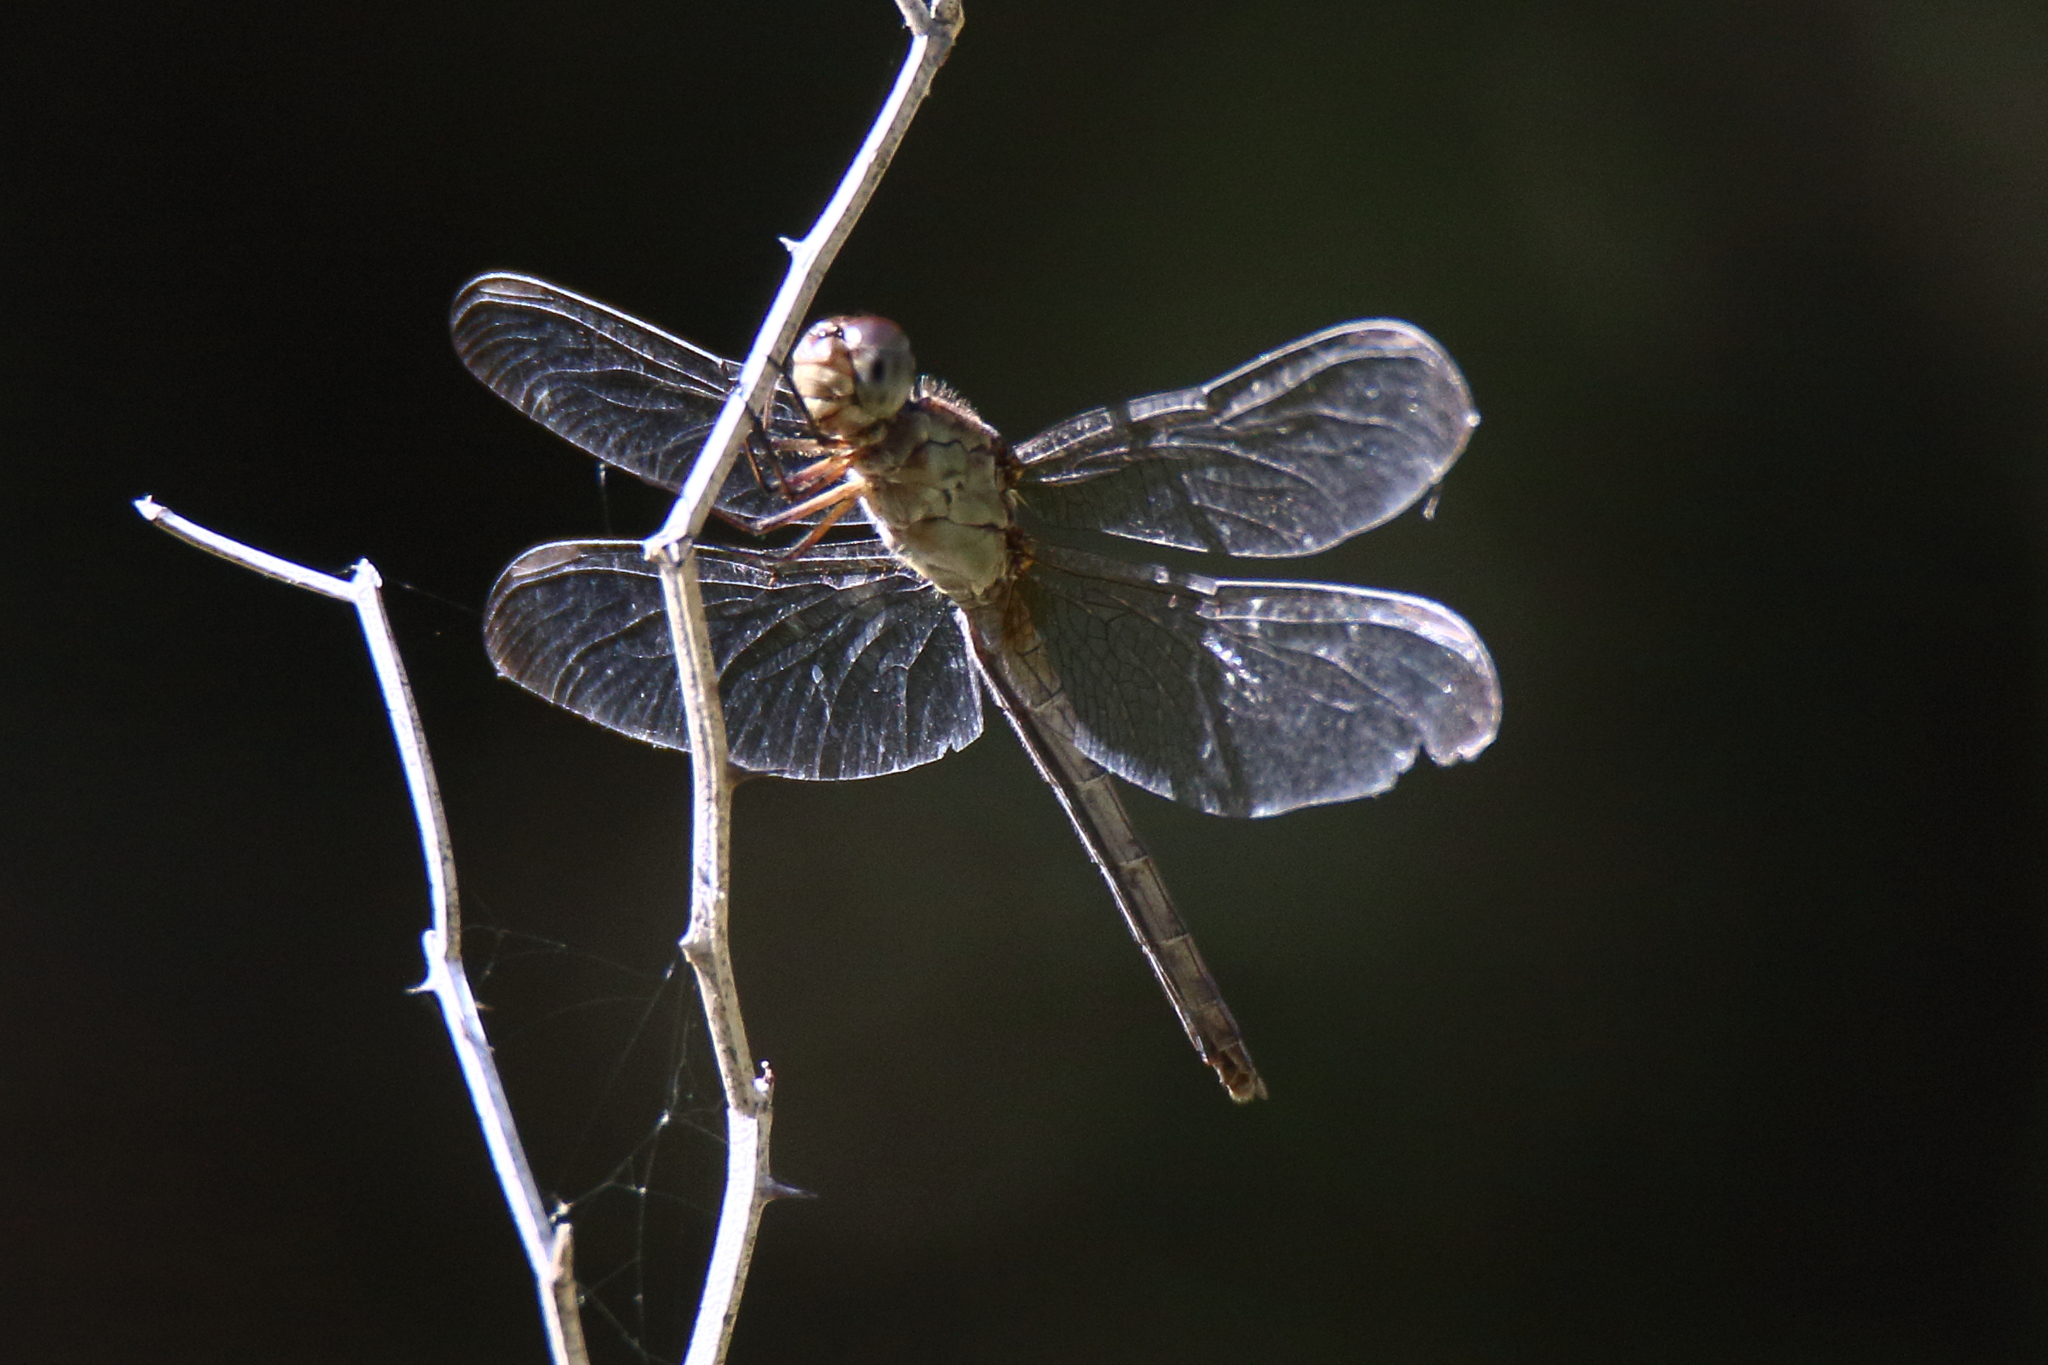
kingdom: Animalia
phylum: Arthropoda
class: Insecta
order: Odonata
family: Libellulidae
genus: Erythrodiplax
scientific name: Erythrodiplax umbrata
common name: Band-winged dragonlet
